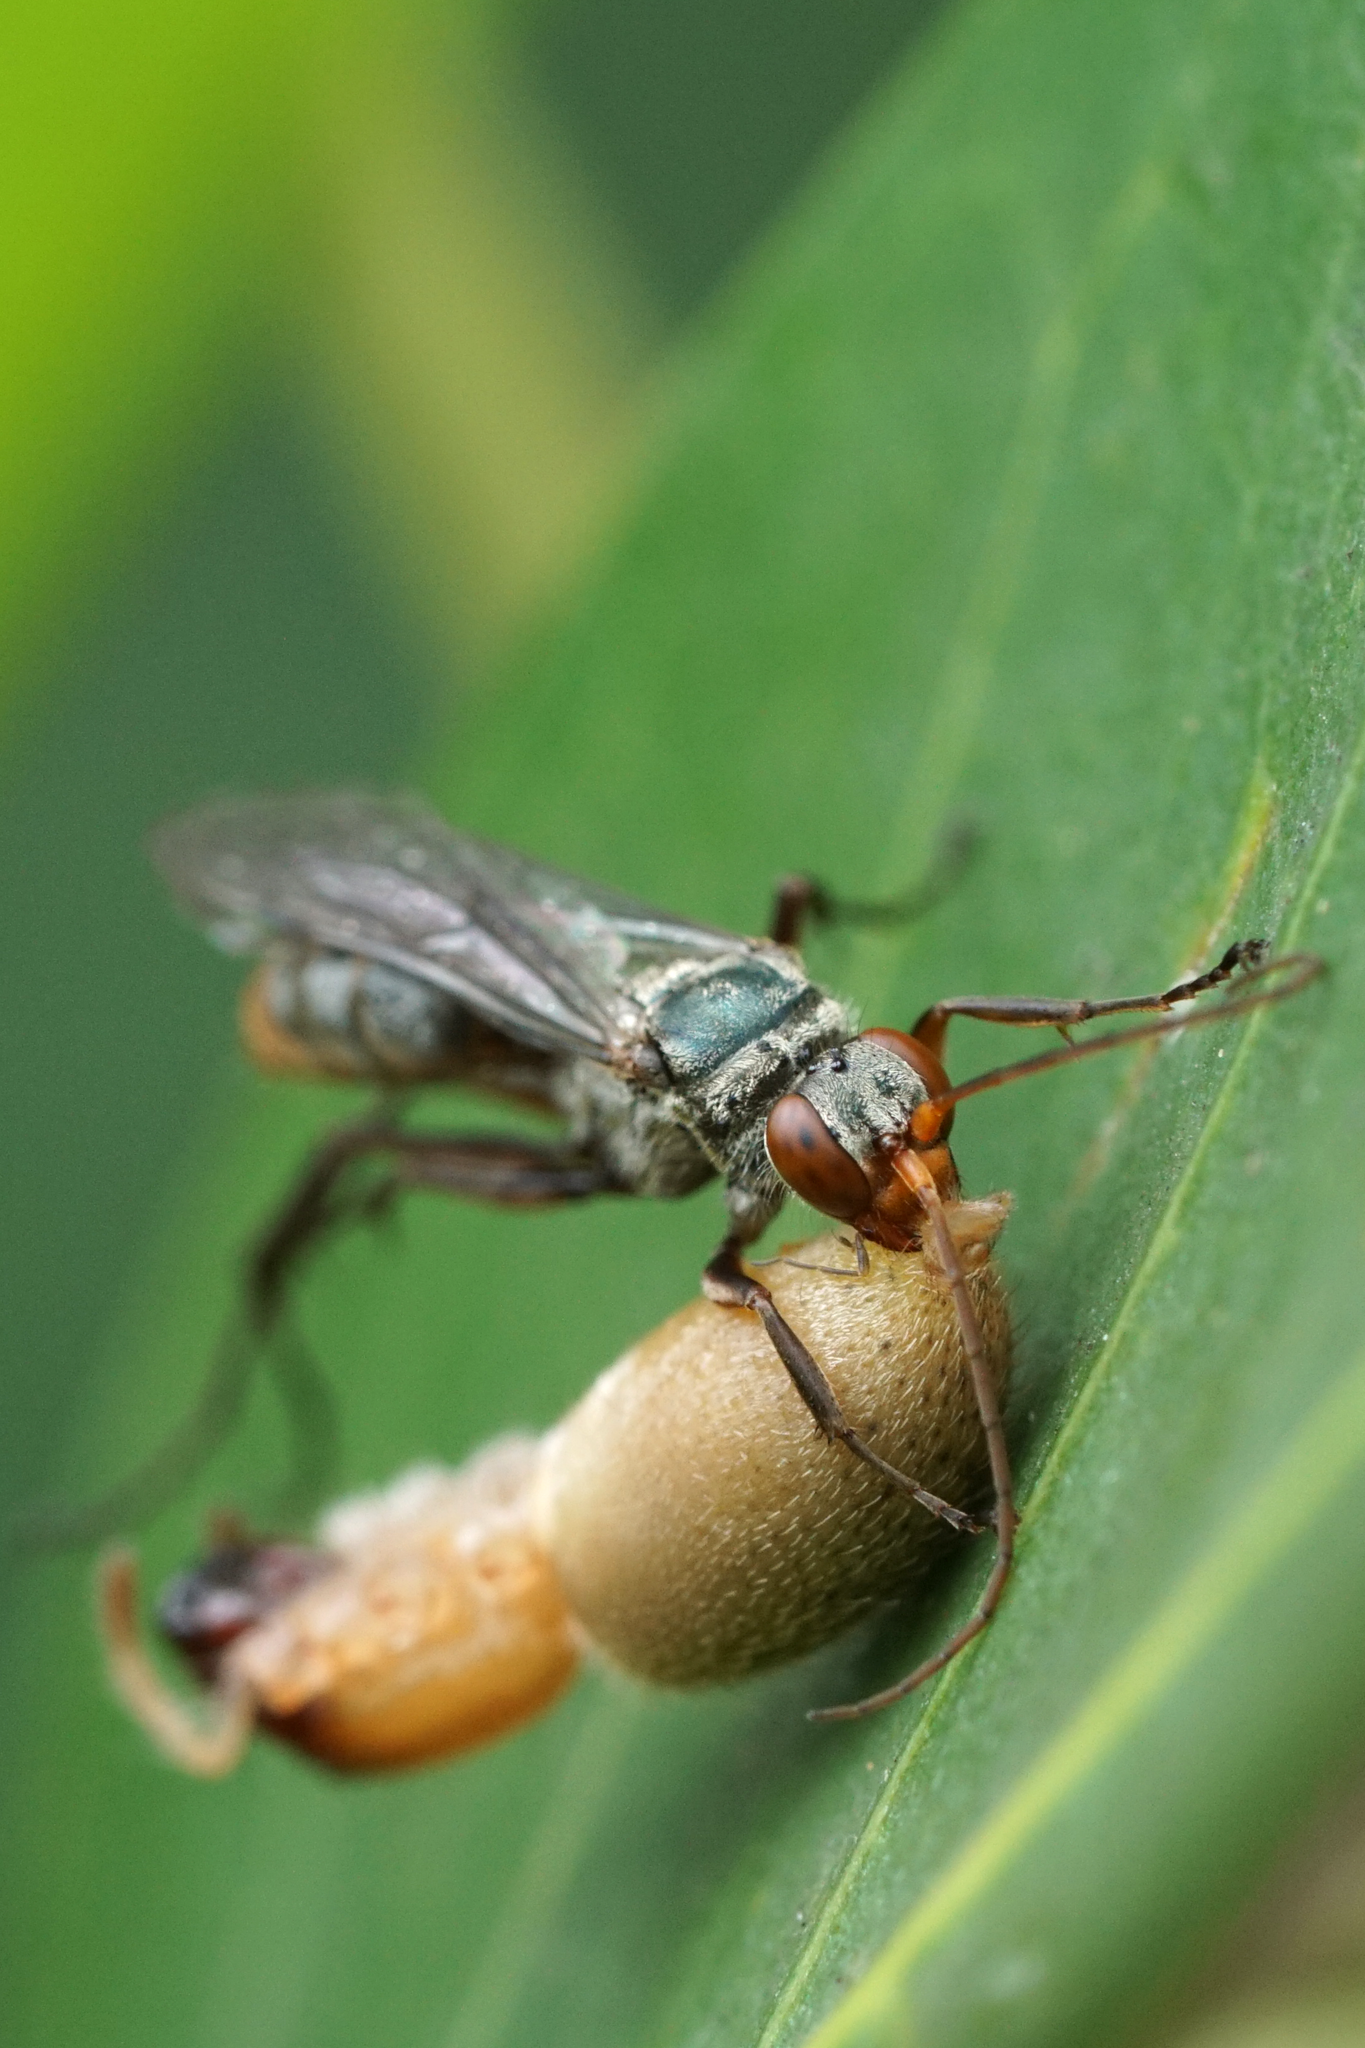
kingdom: Animalia
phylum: Arthropoda
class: Insecta
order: Hymenoptera
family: Pompilidae
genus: Ageniella
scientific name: Ageniella salti
